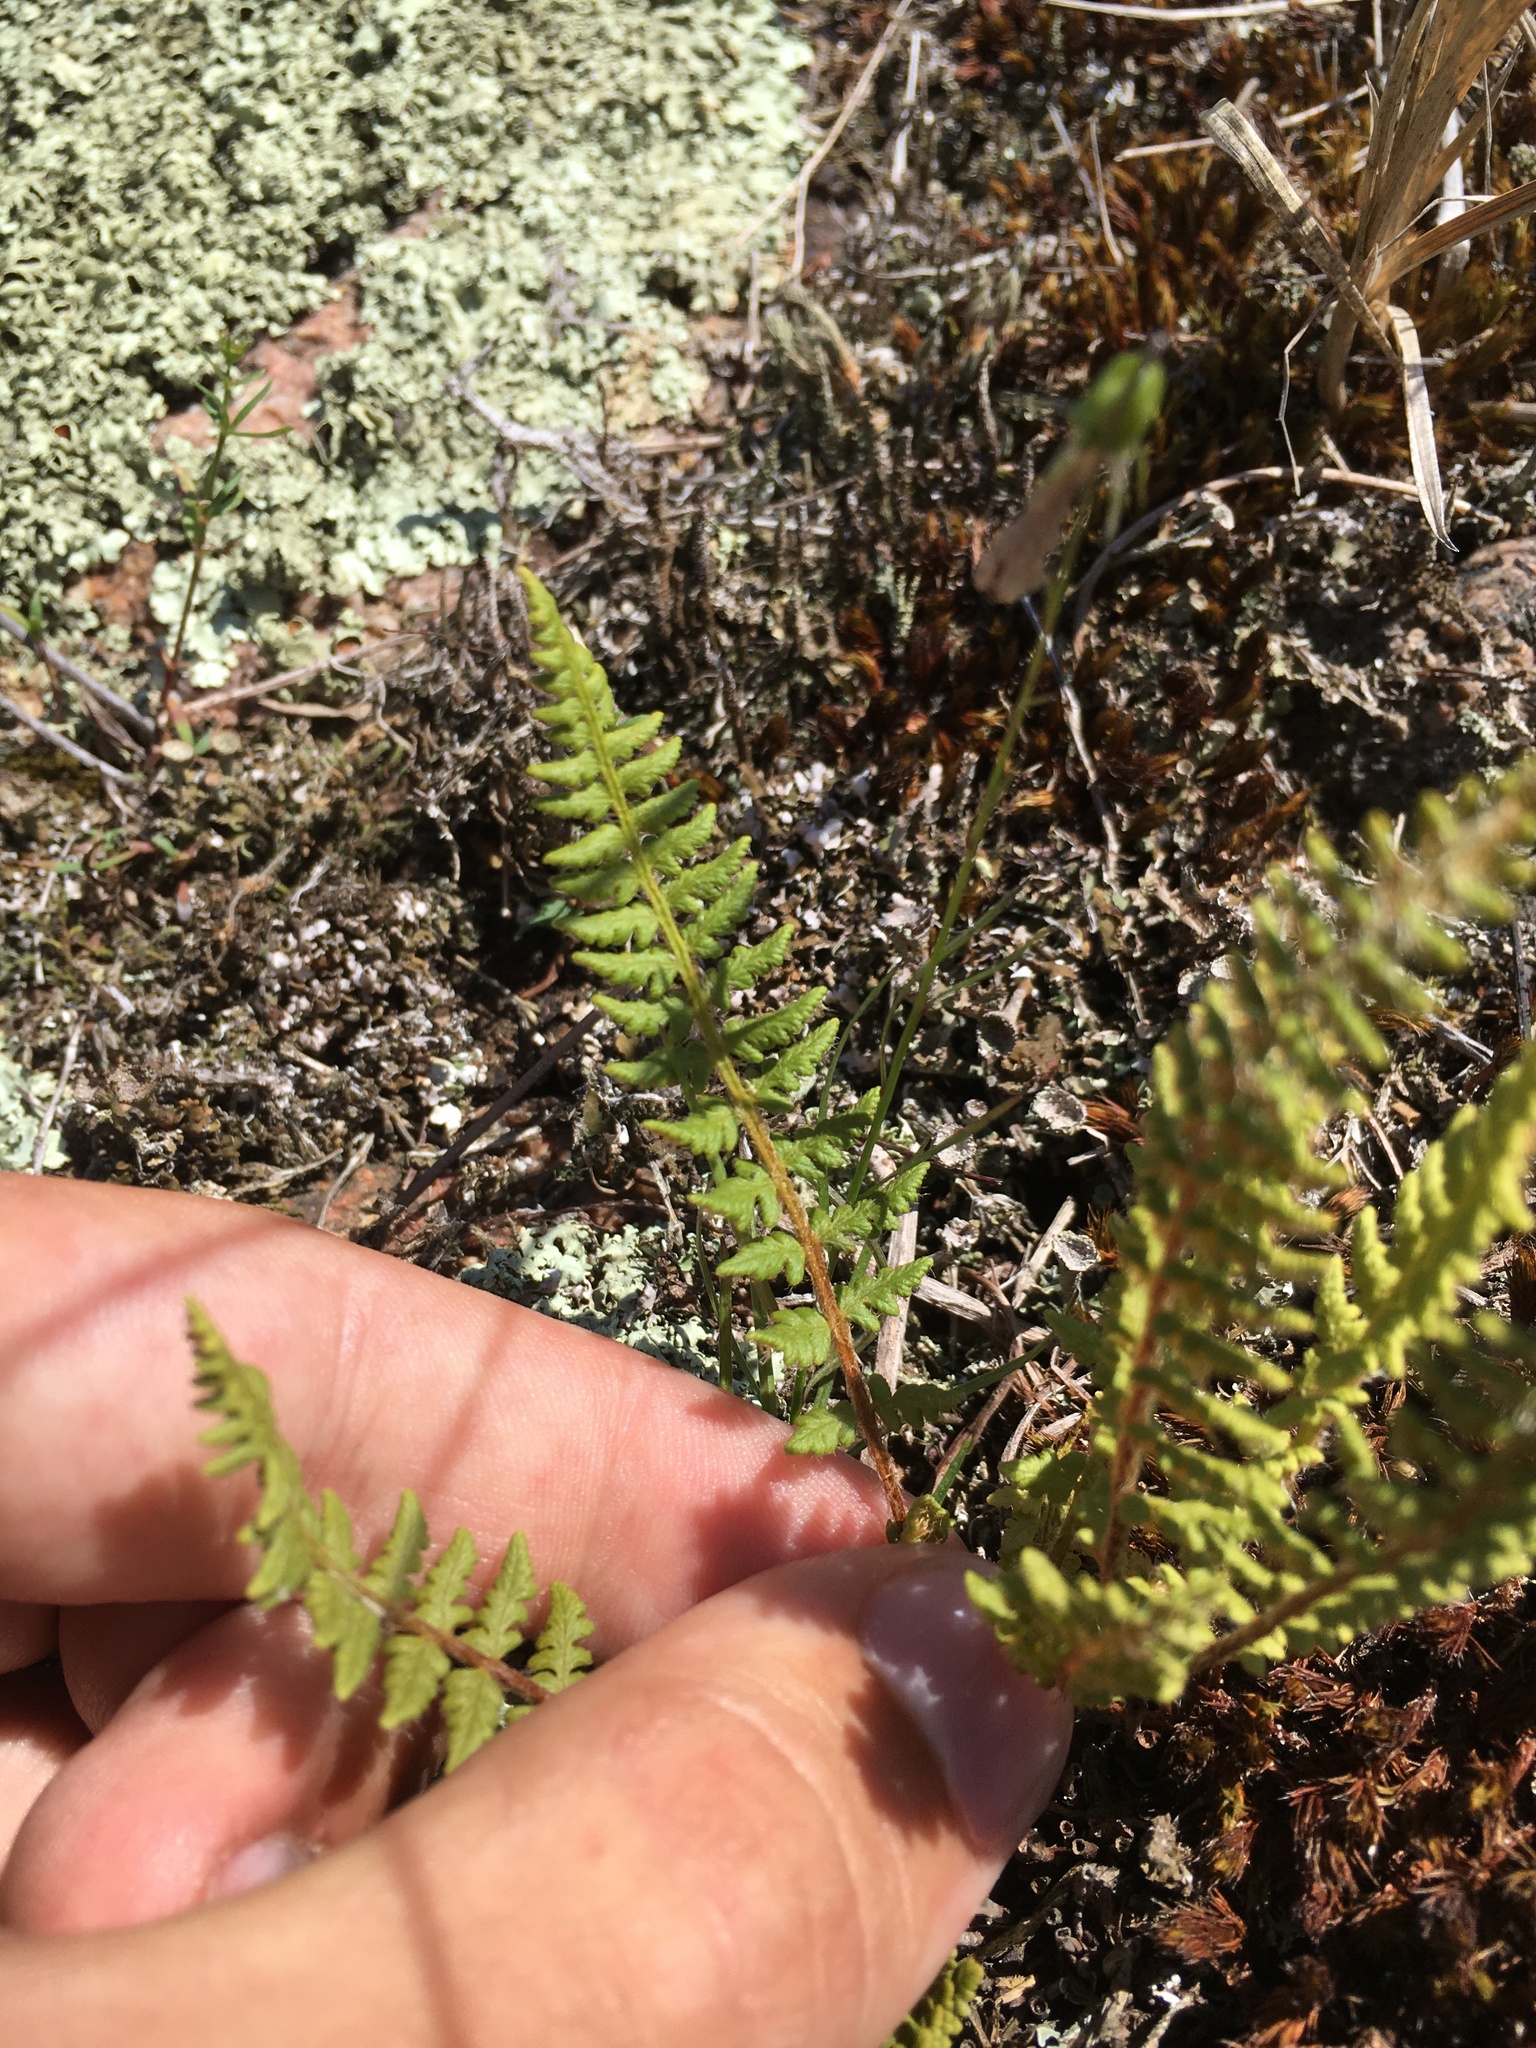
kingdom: Plantae
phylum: Tracheophyta
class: Polypodiopsida
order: Polypodiales
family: Woodsiaceae
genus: Woodsia
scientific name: Woodsia ilvensis
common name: Fragrant woodsia
